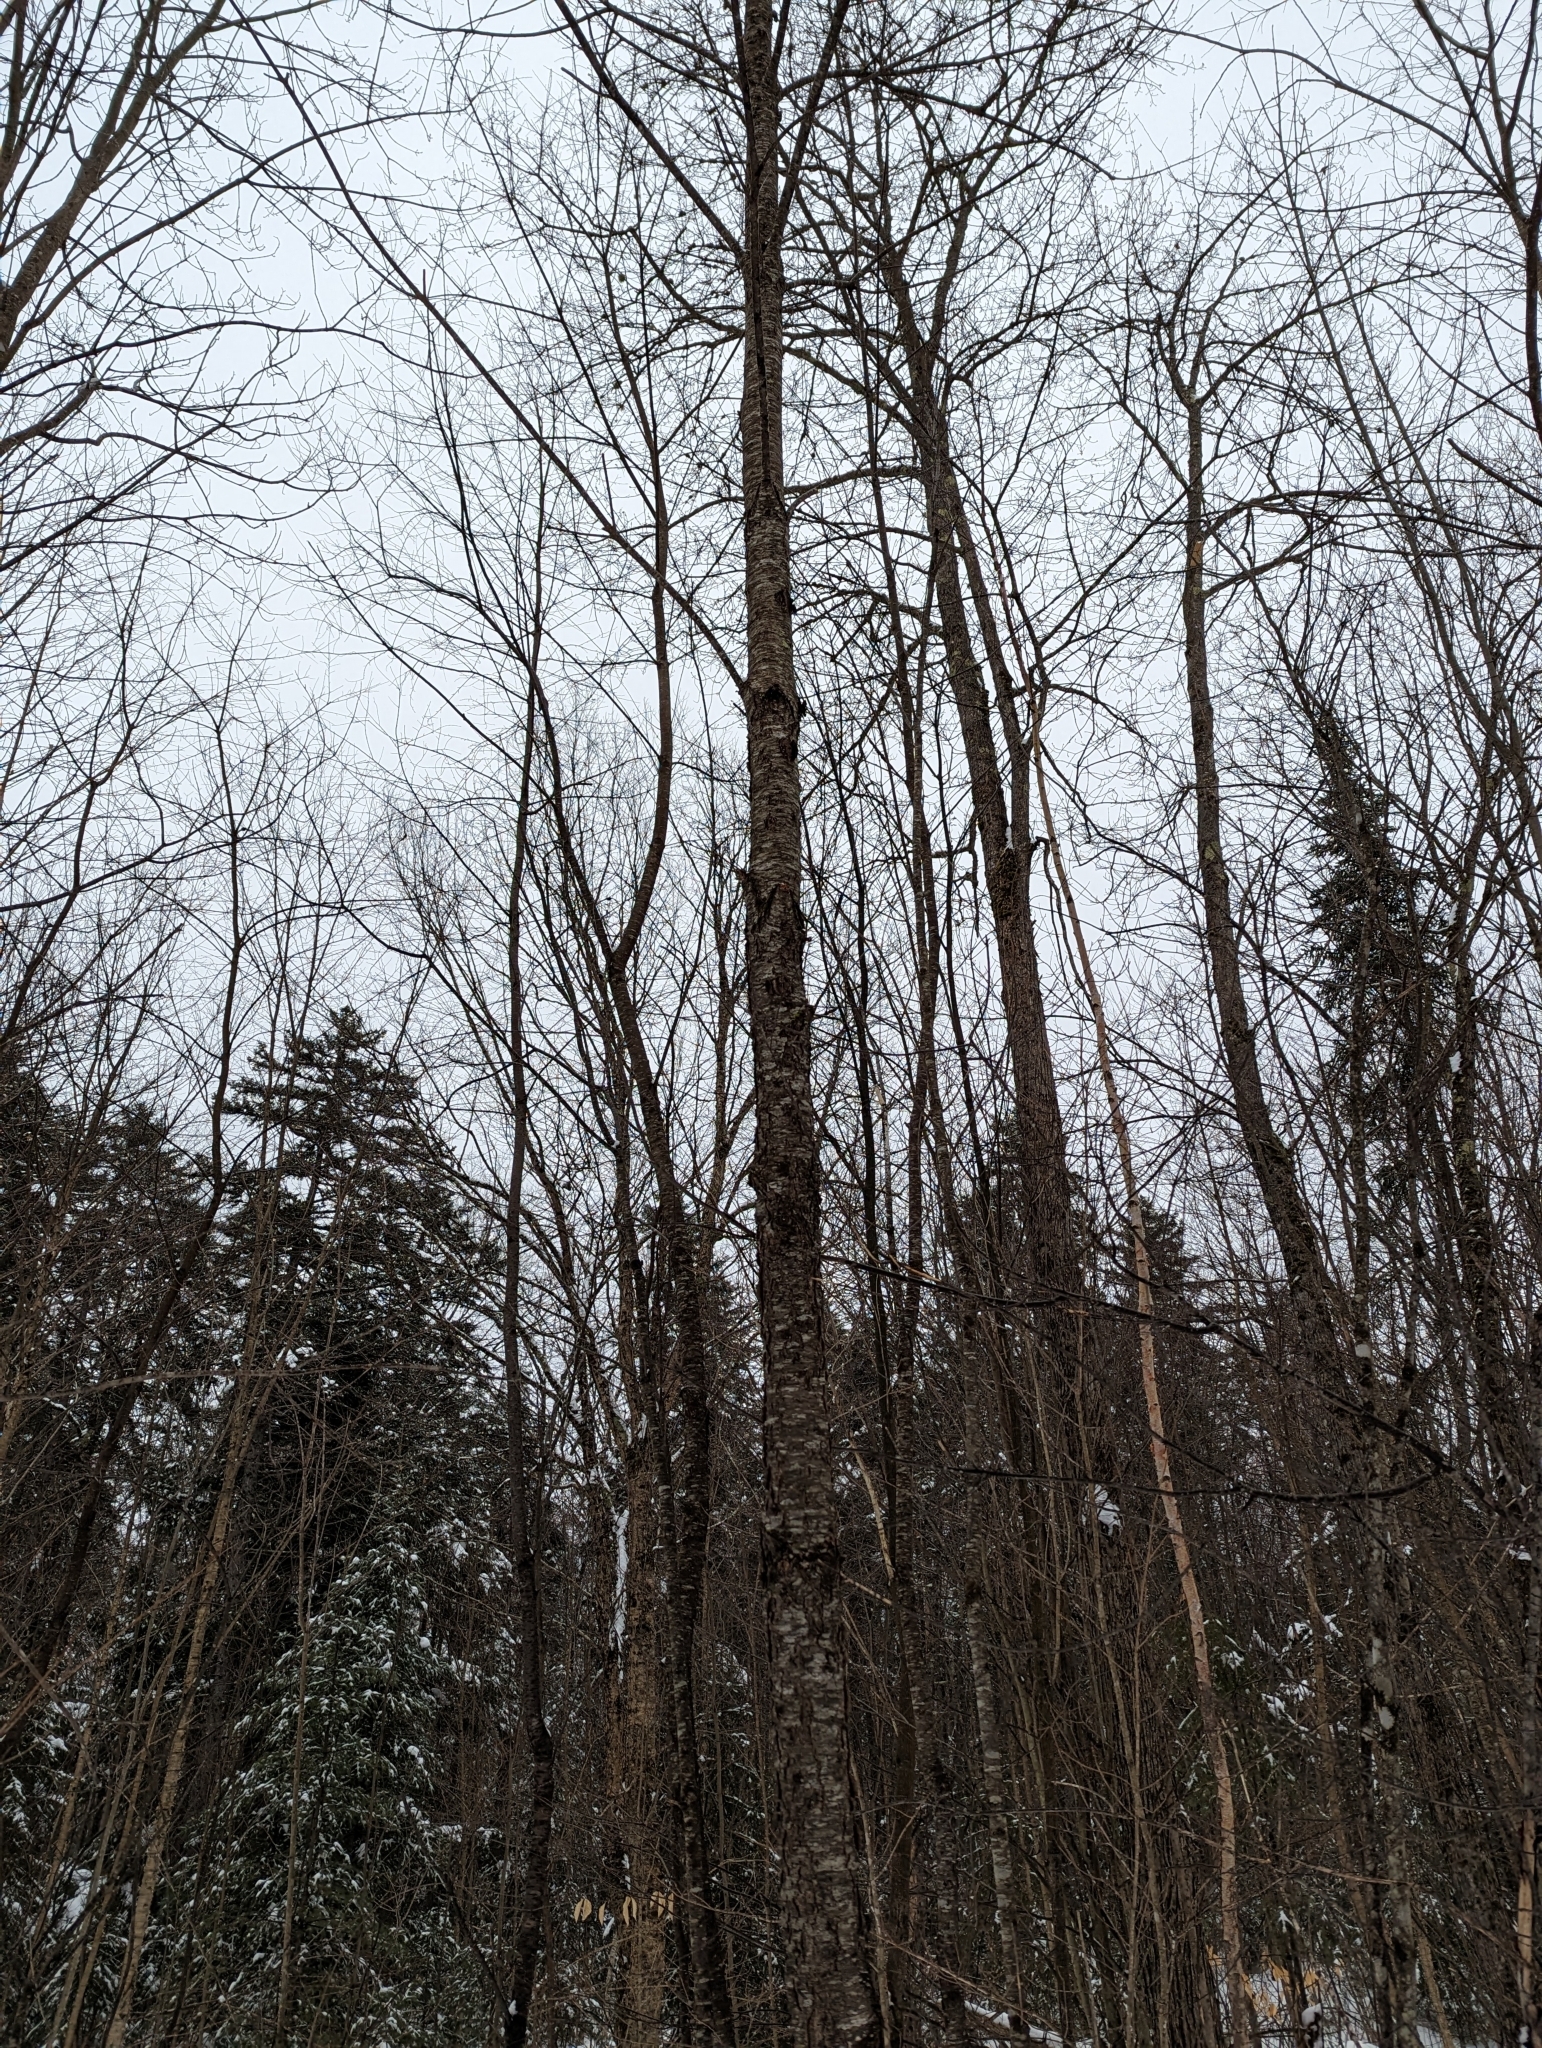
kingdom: Plantae
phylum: Tracheophyta
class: Magnoliopsida
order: Rosales
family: Rosaceae
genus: Prunus
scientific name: Prunus serotina
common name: Black cherry
